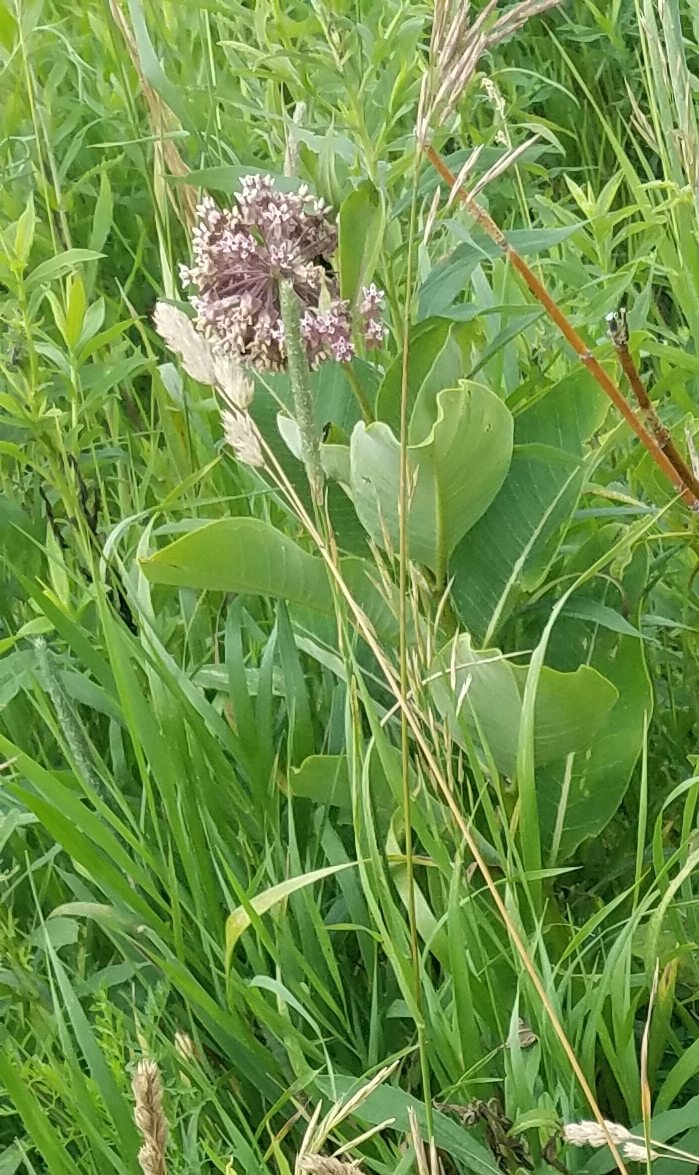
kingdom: Plantae
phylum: Tracheophyta
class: Magnoliopsida
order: Gentianales
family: Apocynaceae
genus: Asclepias
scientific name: Asclepias syriaca
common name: Common milkweed
